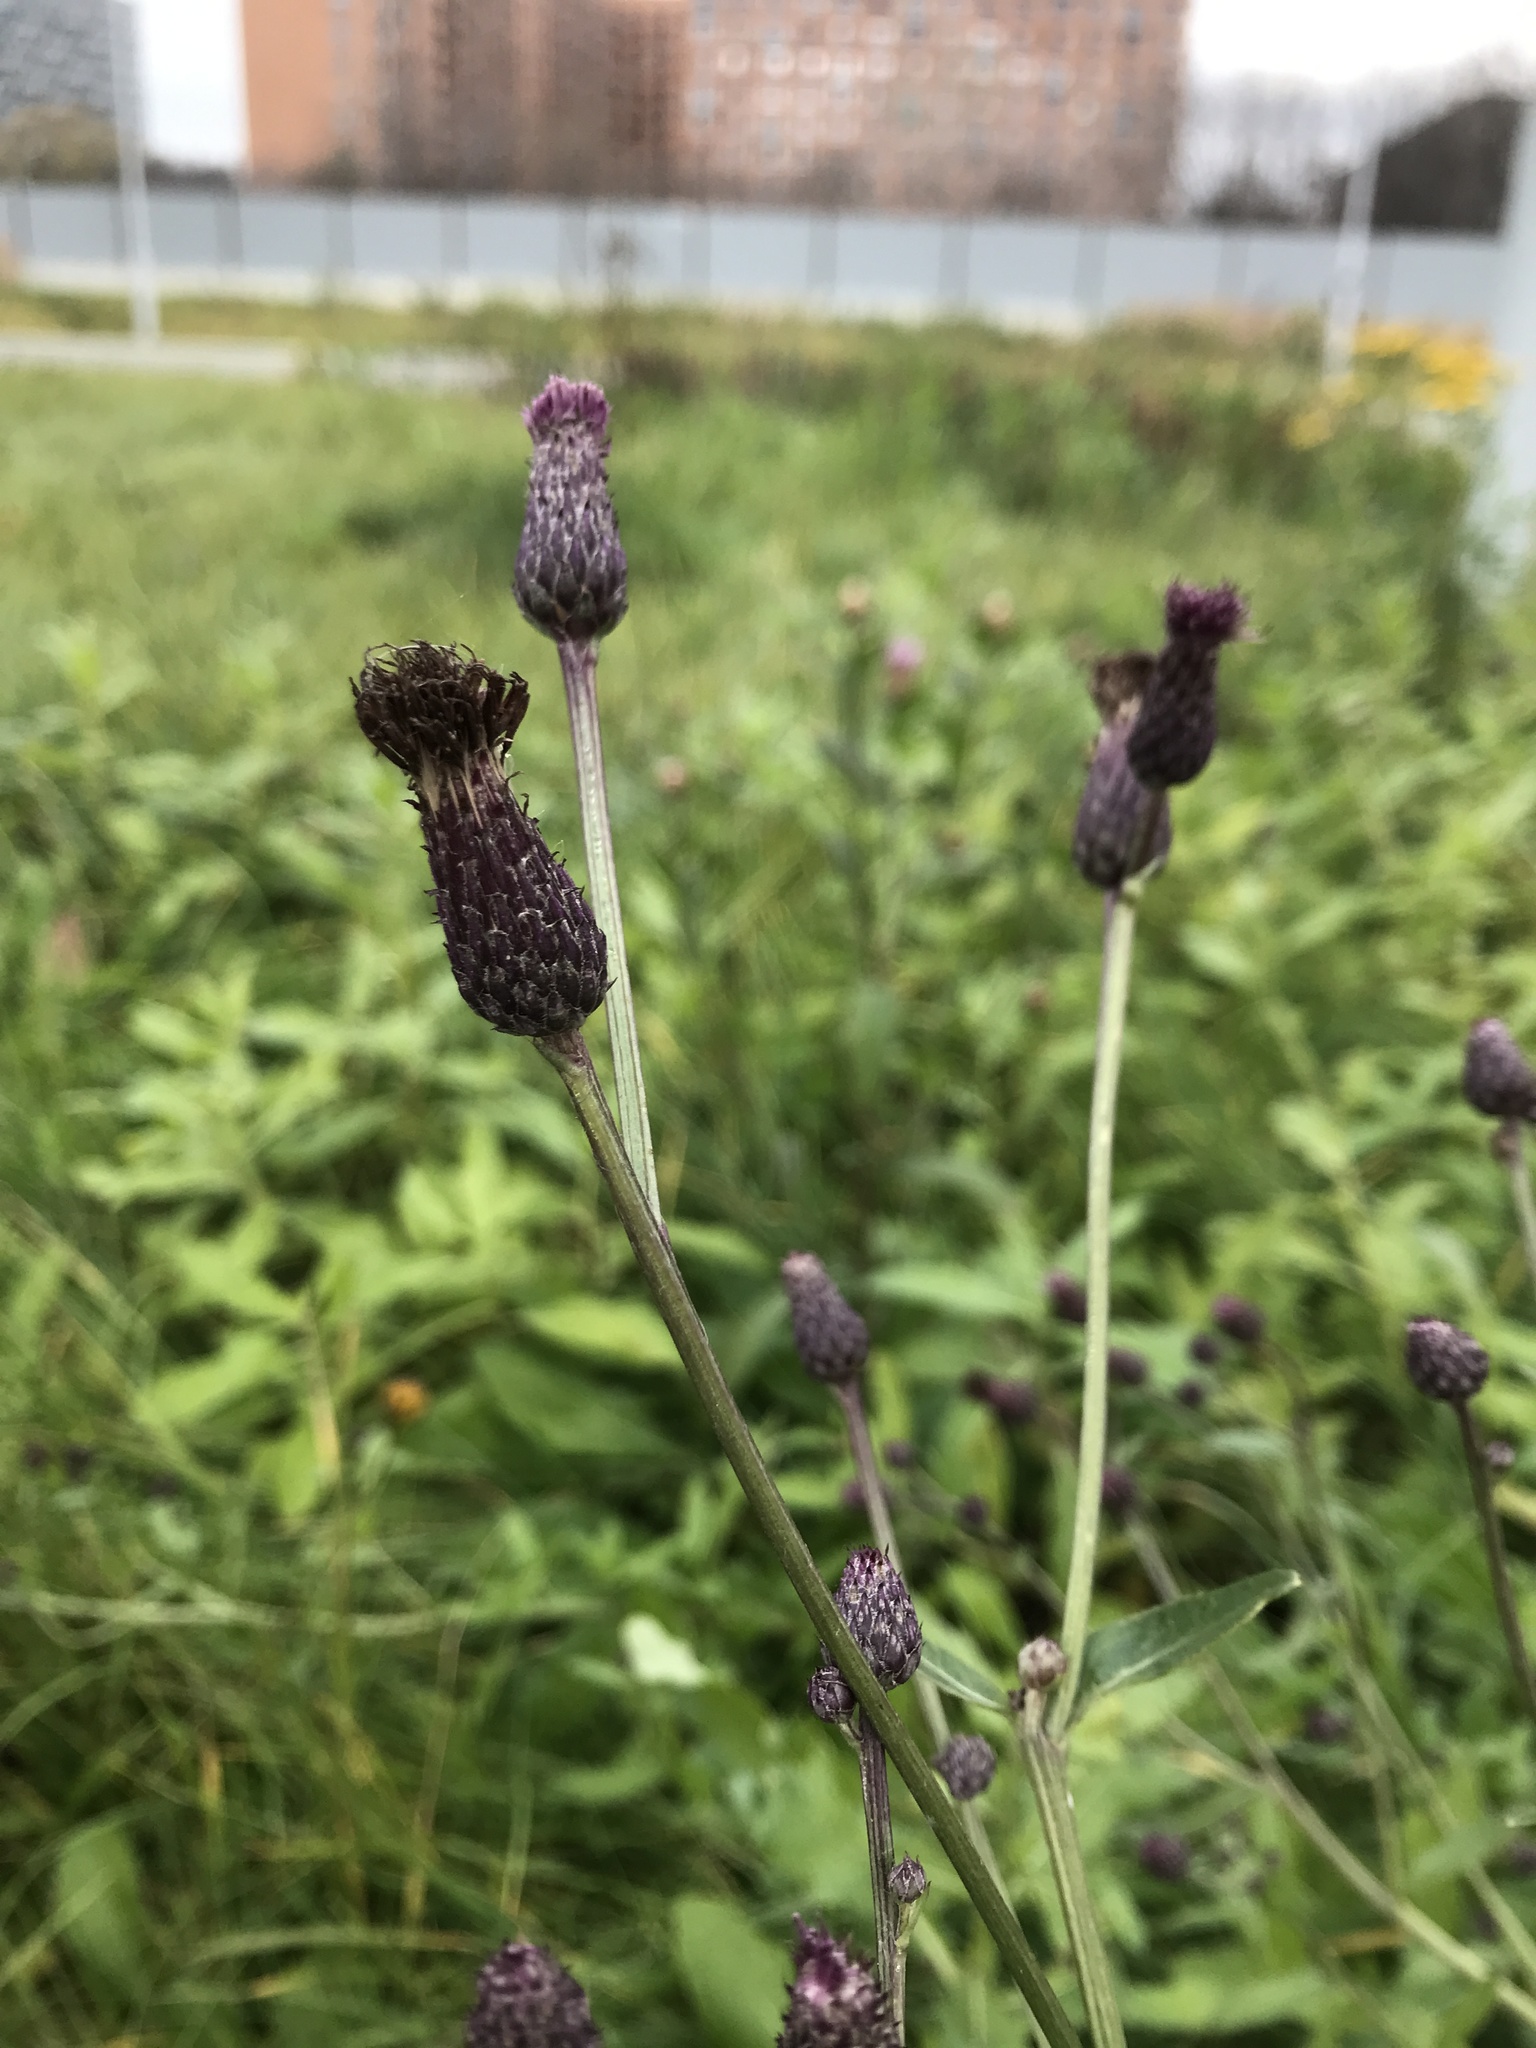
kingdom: Plantae
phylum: Tracheophyta
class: Magnoliopsida
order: Asterales
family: Asteraceae
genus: Cirsium
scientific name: Cirsium arvense
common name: Creeping thistle
